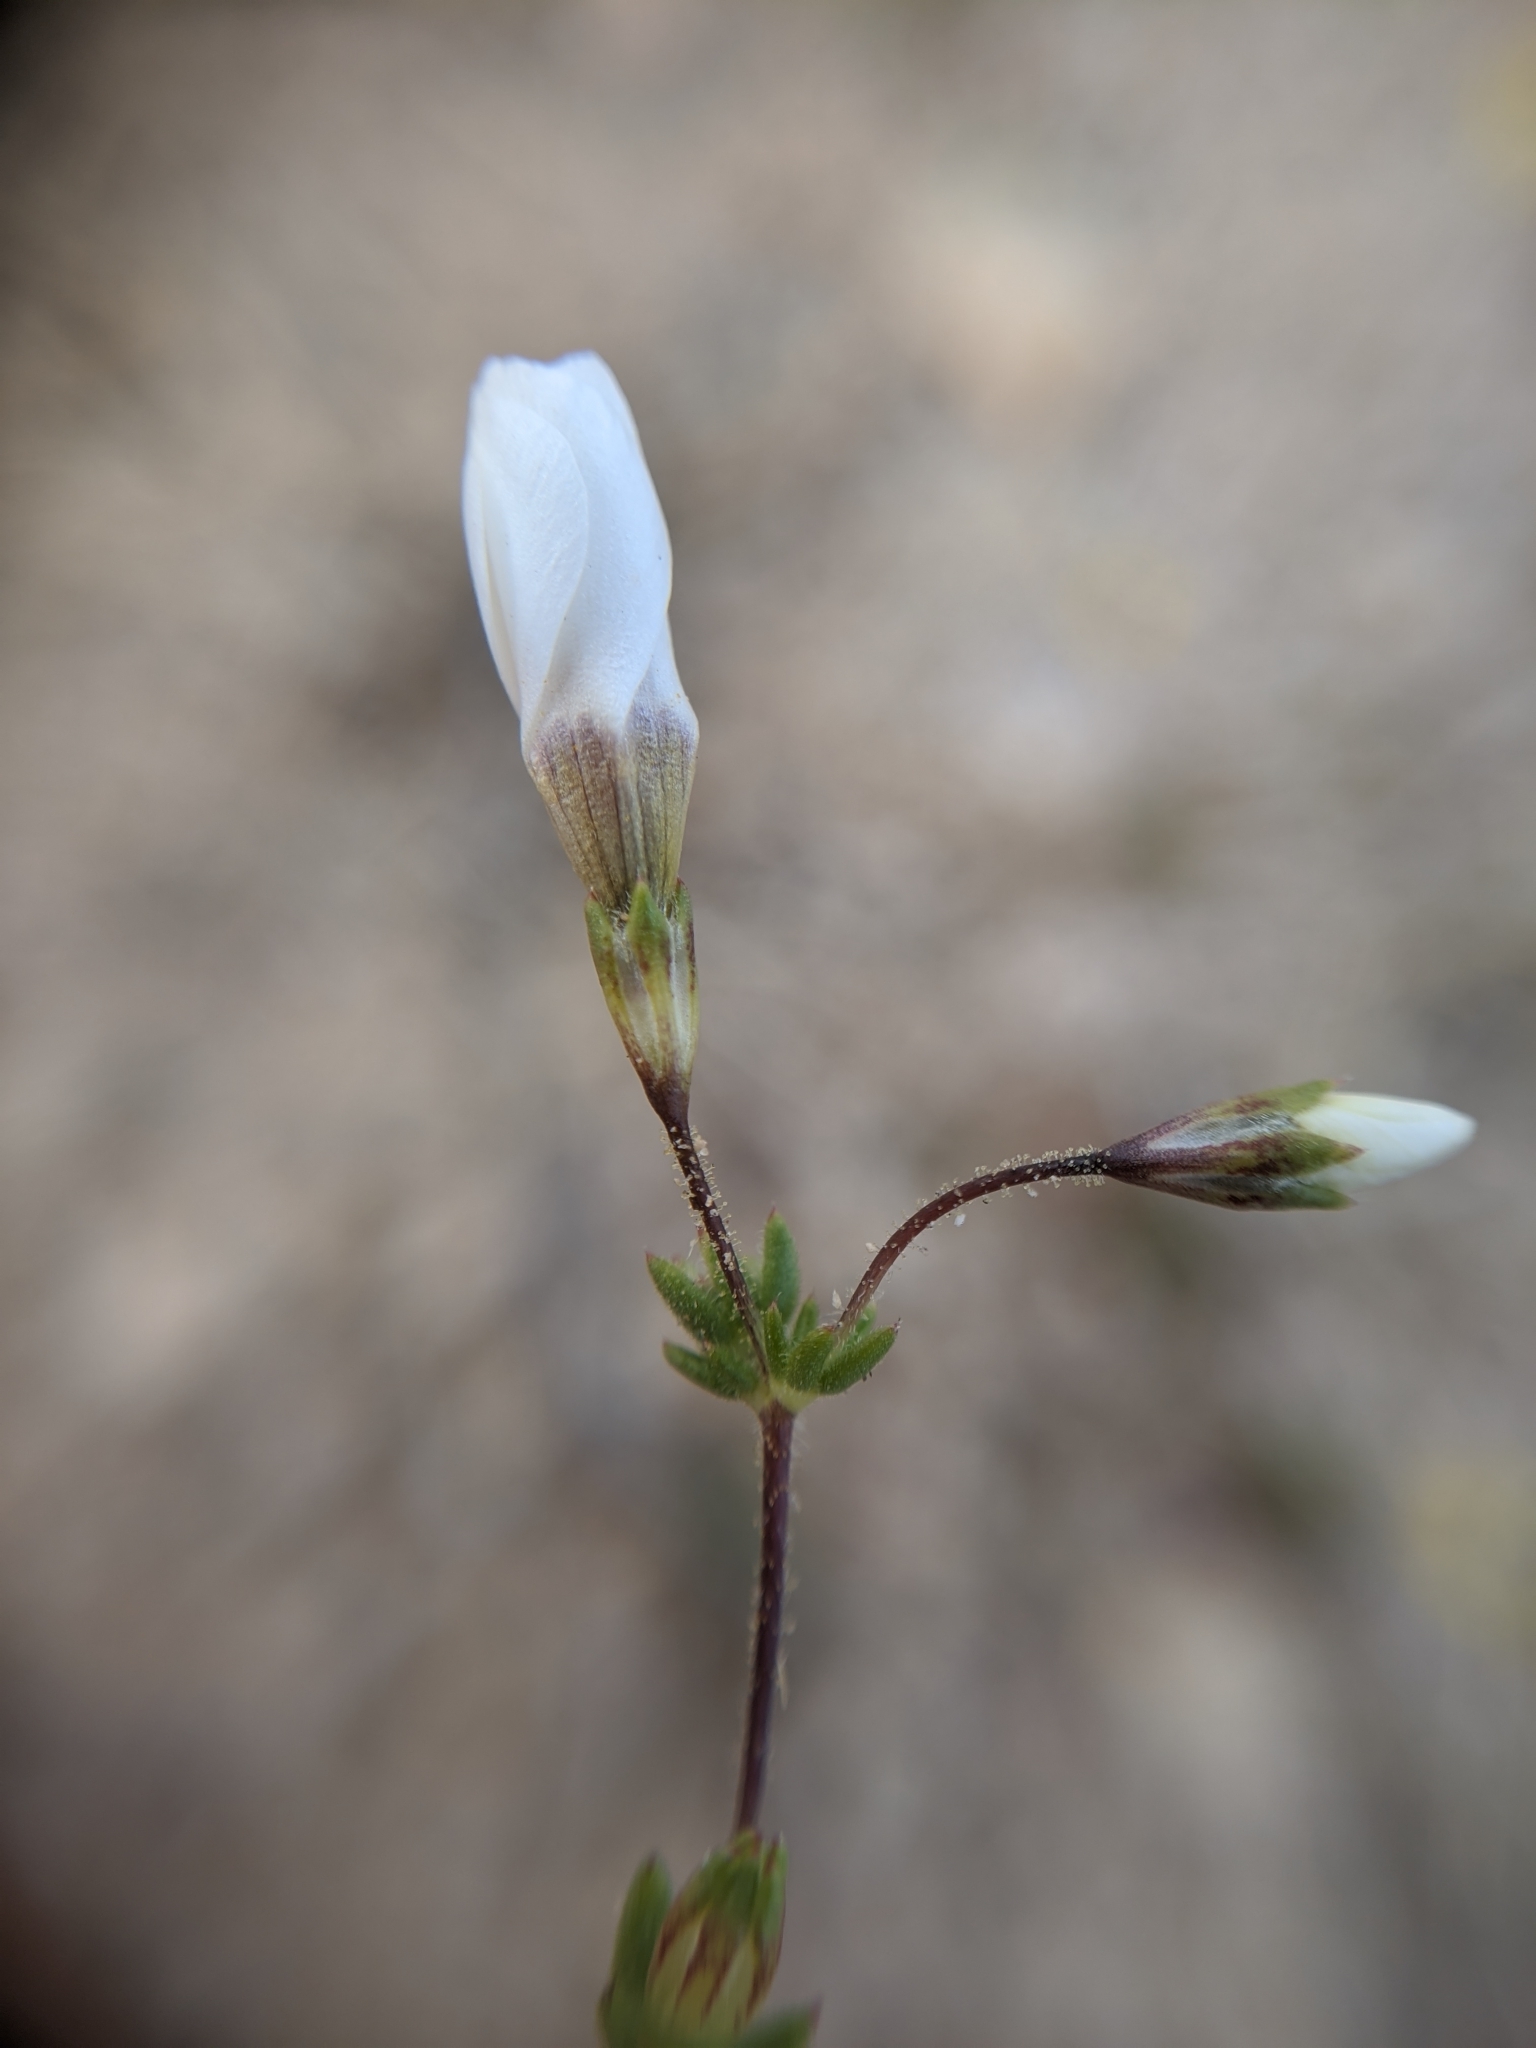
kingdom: Plantae
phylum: Tracheophyta
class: Magnoliopsida
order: Ericales
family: Polemoniaceae
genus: Leptosiphon
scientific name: Leptosiphon chrysanthus
